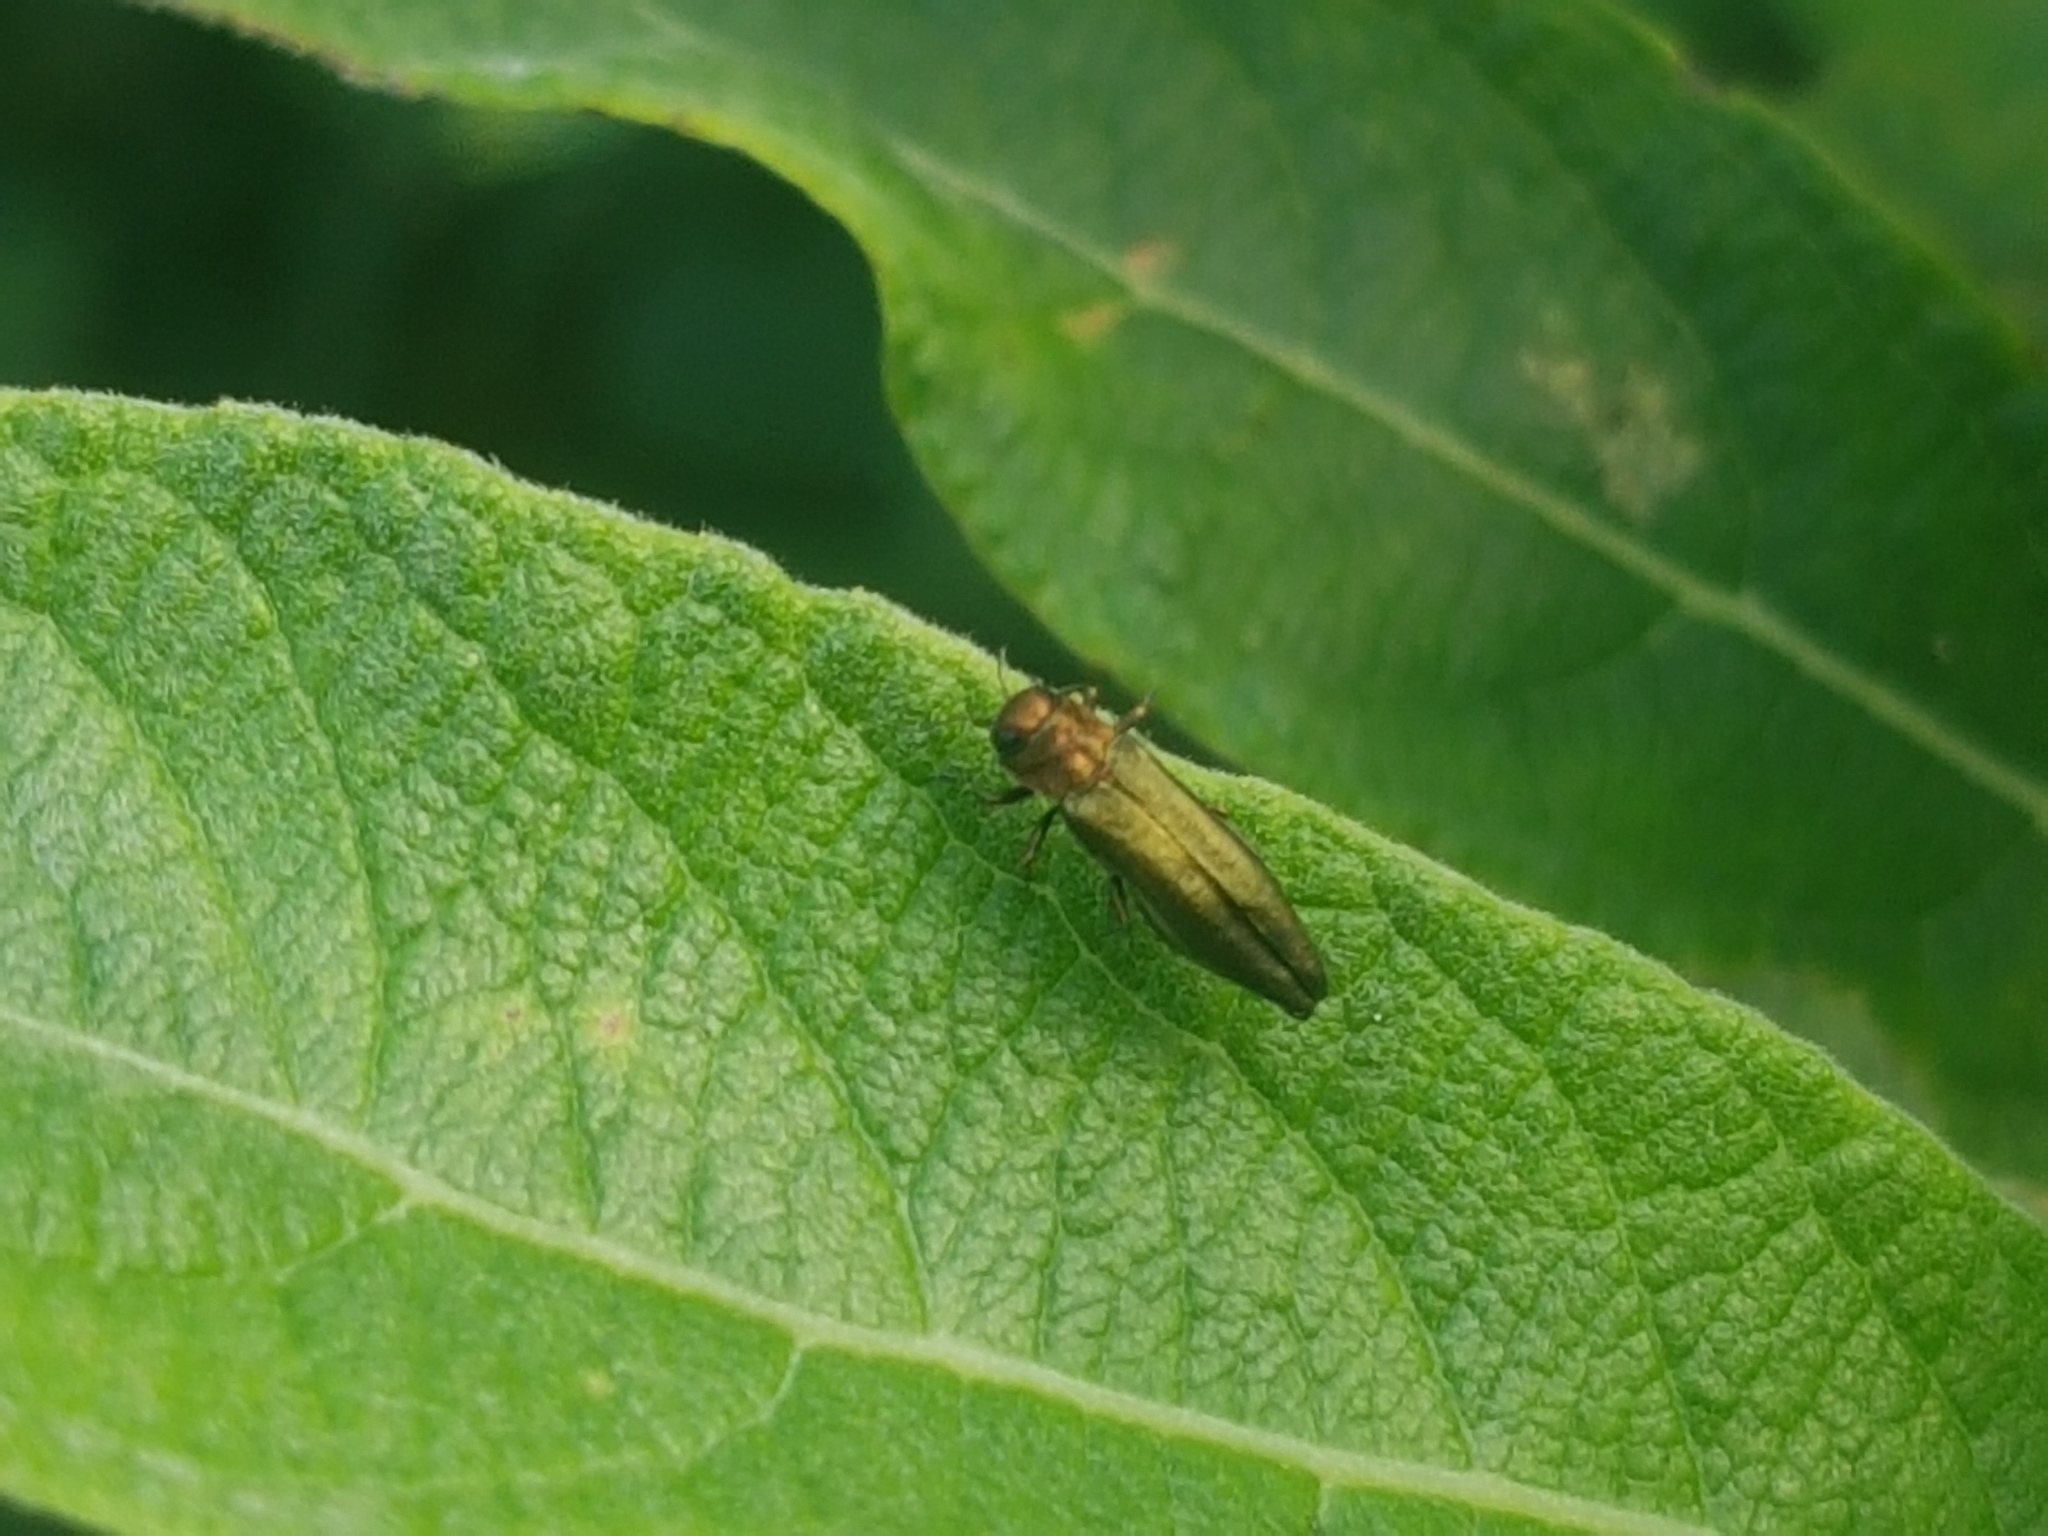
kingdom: Animalia
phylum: Arthropoda
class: Insecta
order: Coleoptera
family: Buprestidae
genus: Agrilus
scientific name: Agrilus viridis
